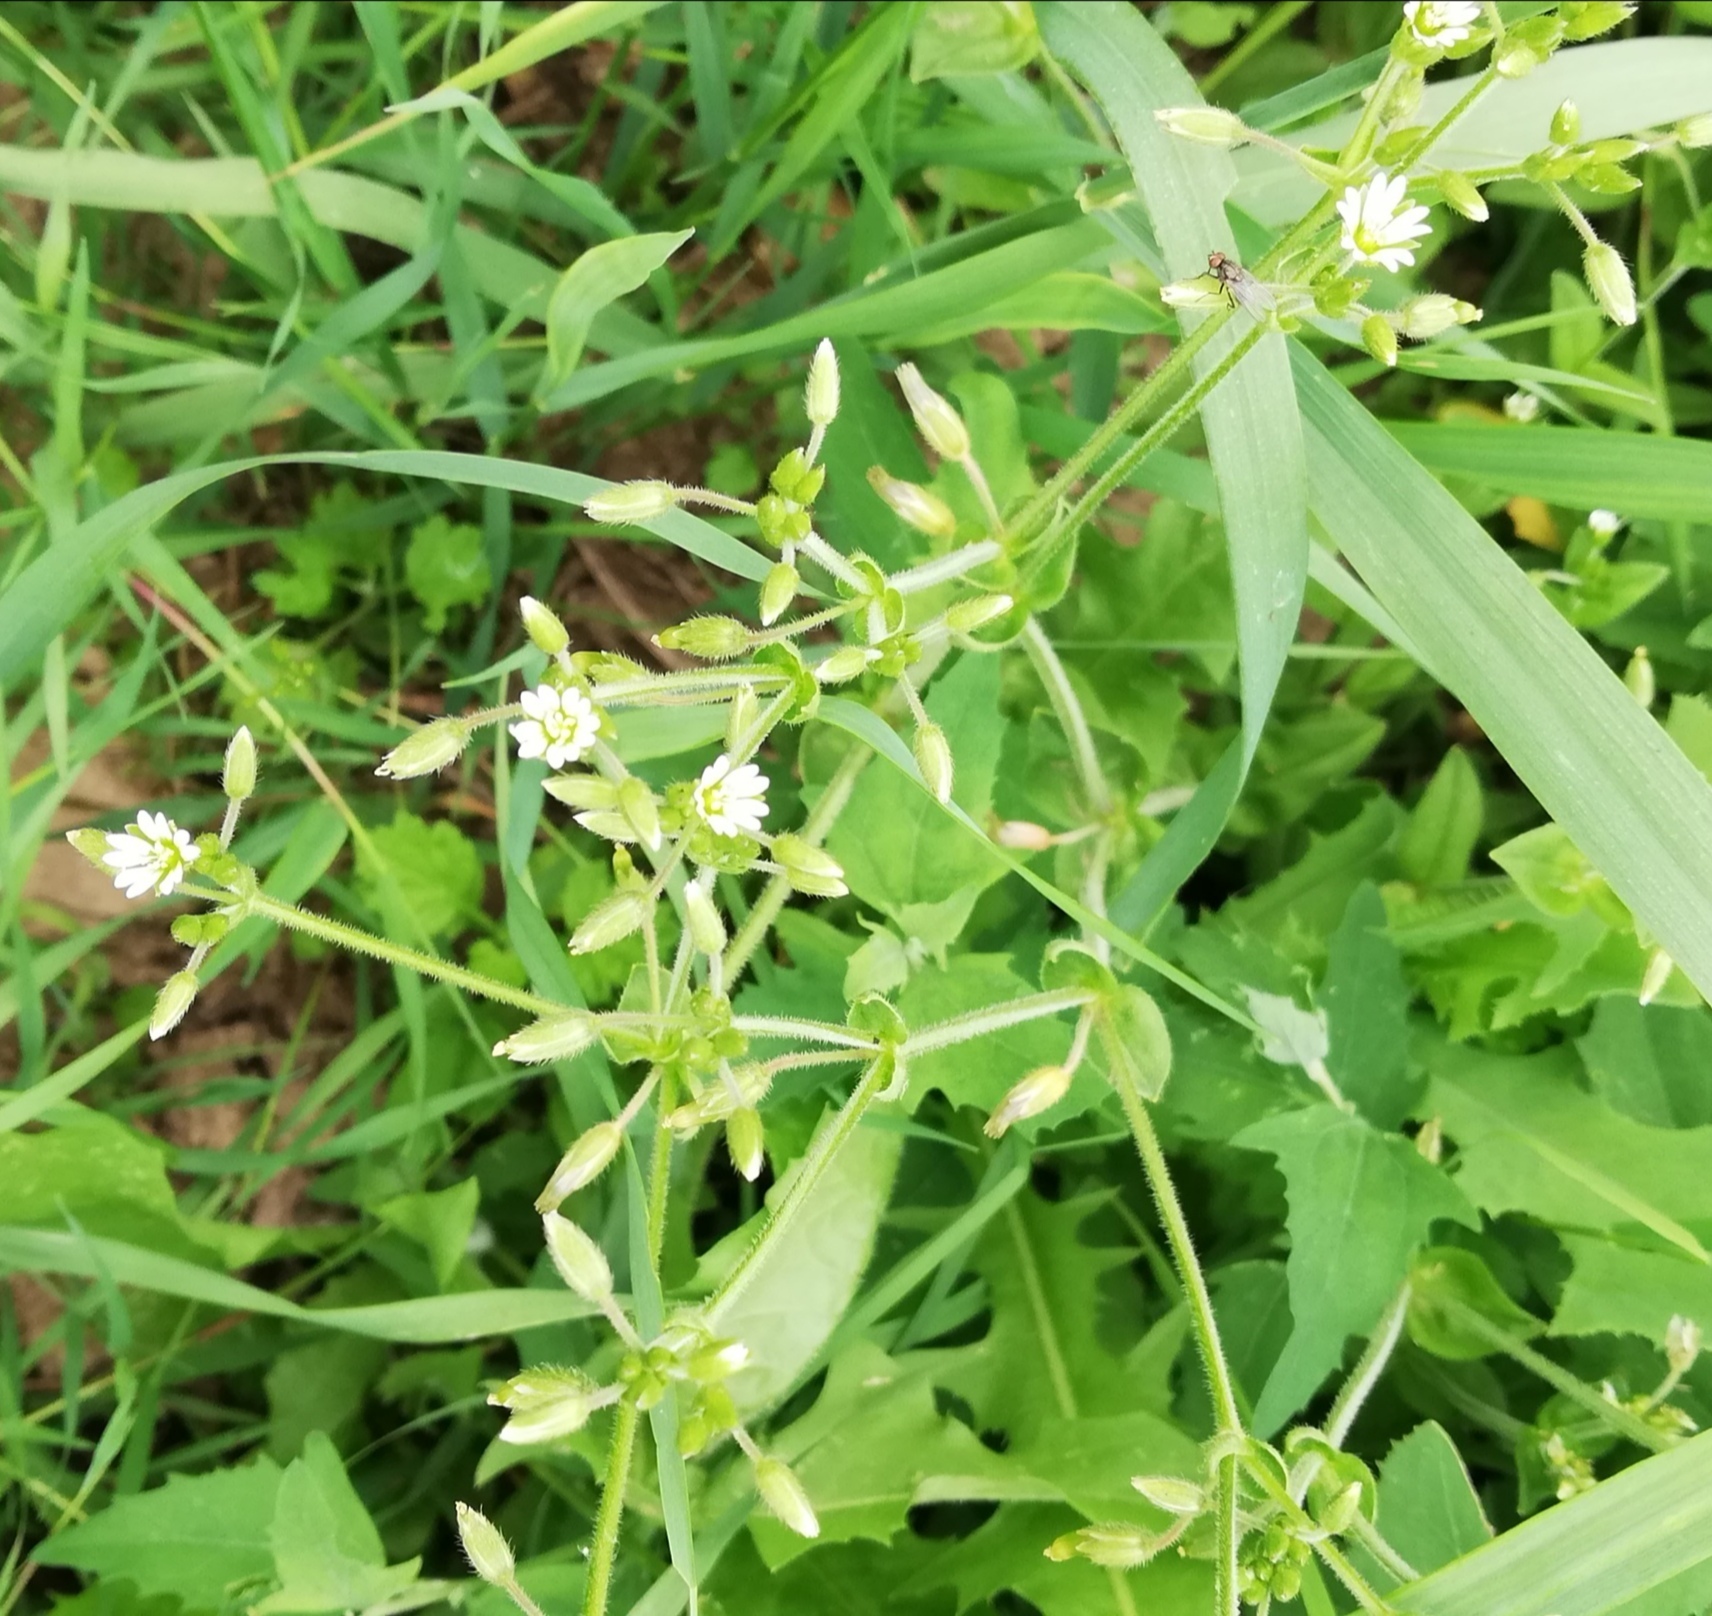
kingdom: Plantae
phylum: Tracheophyta
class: Magnoliopsida
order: Caryophyllales
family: Caryophyllaceae
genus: Cerastium
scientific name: Cerastium holosteoides
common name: Big chickweed
